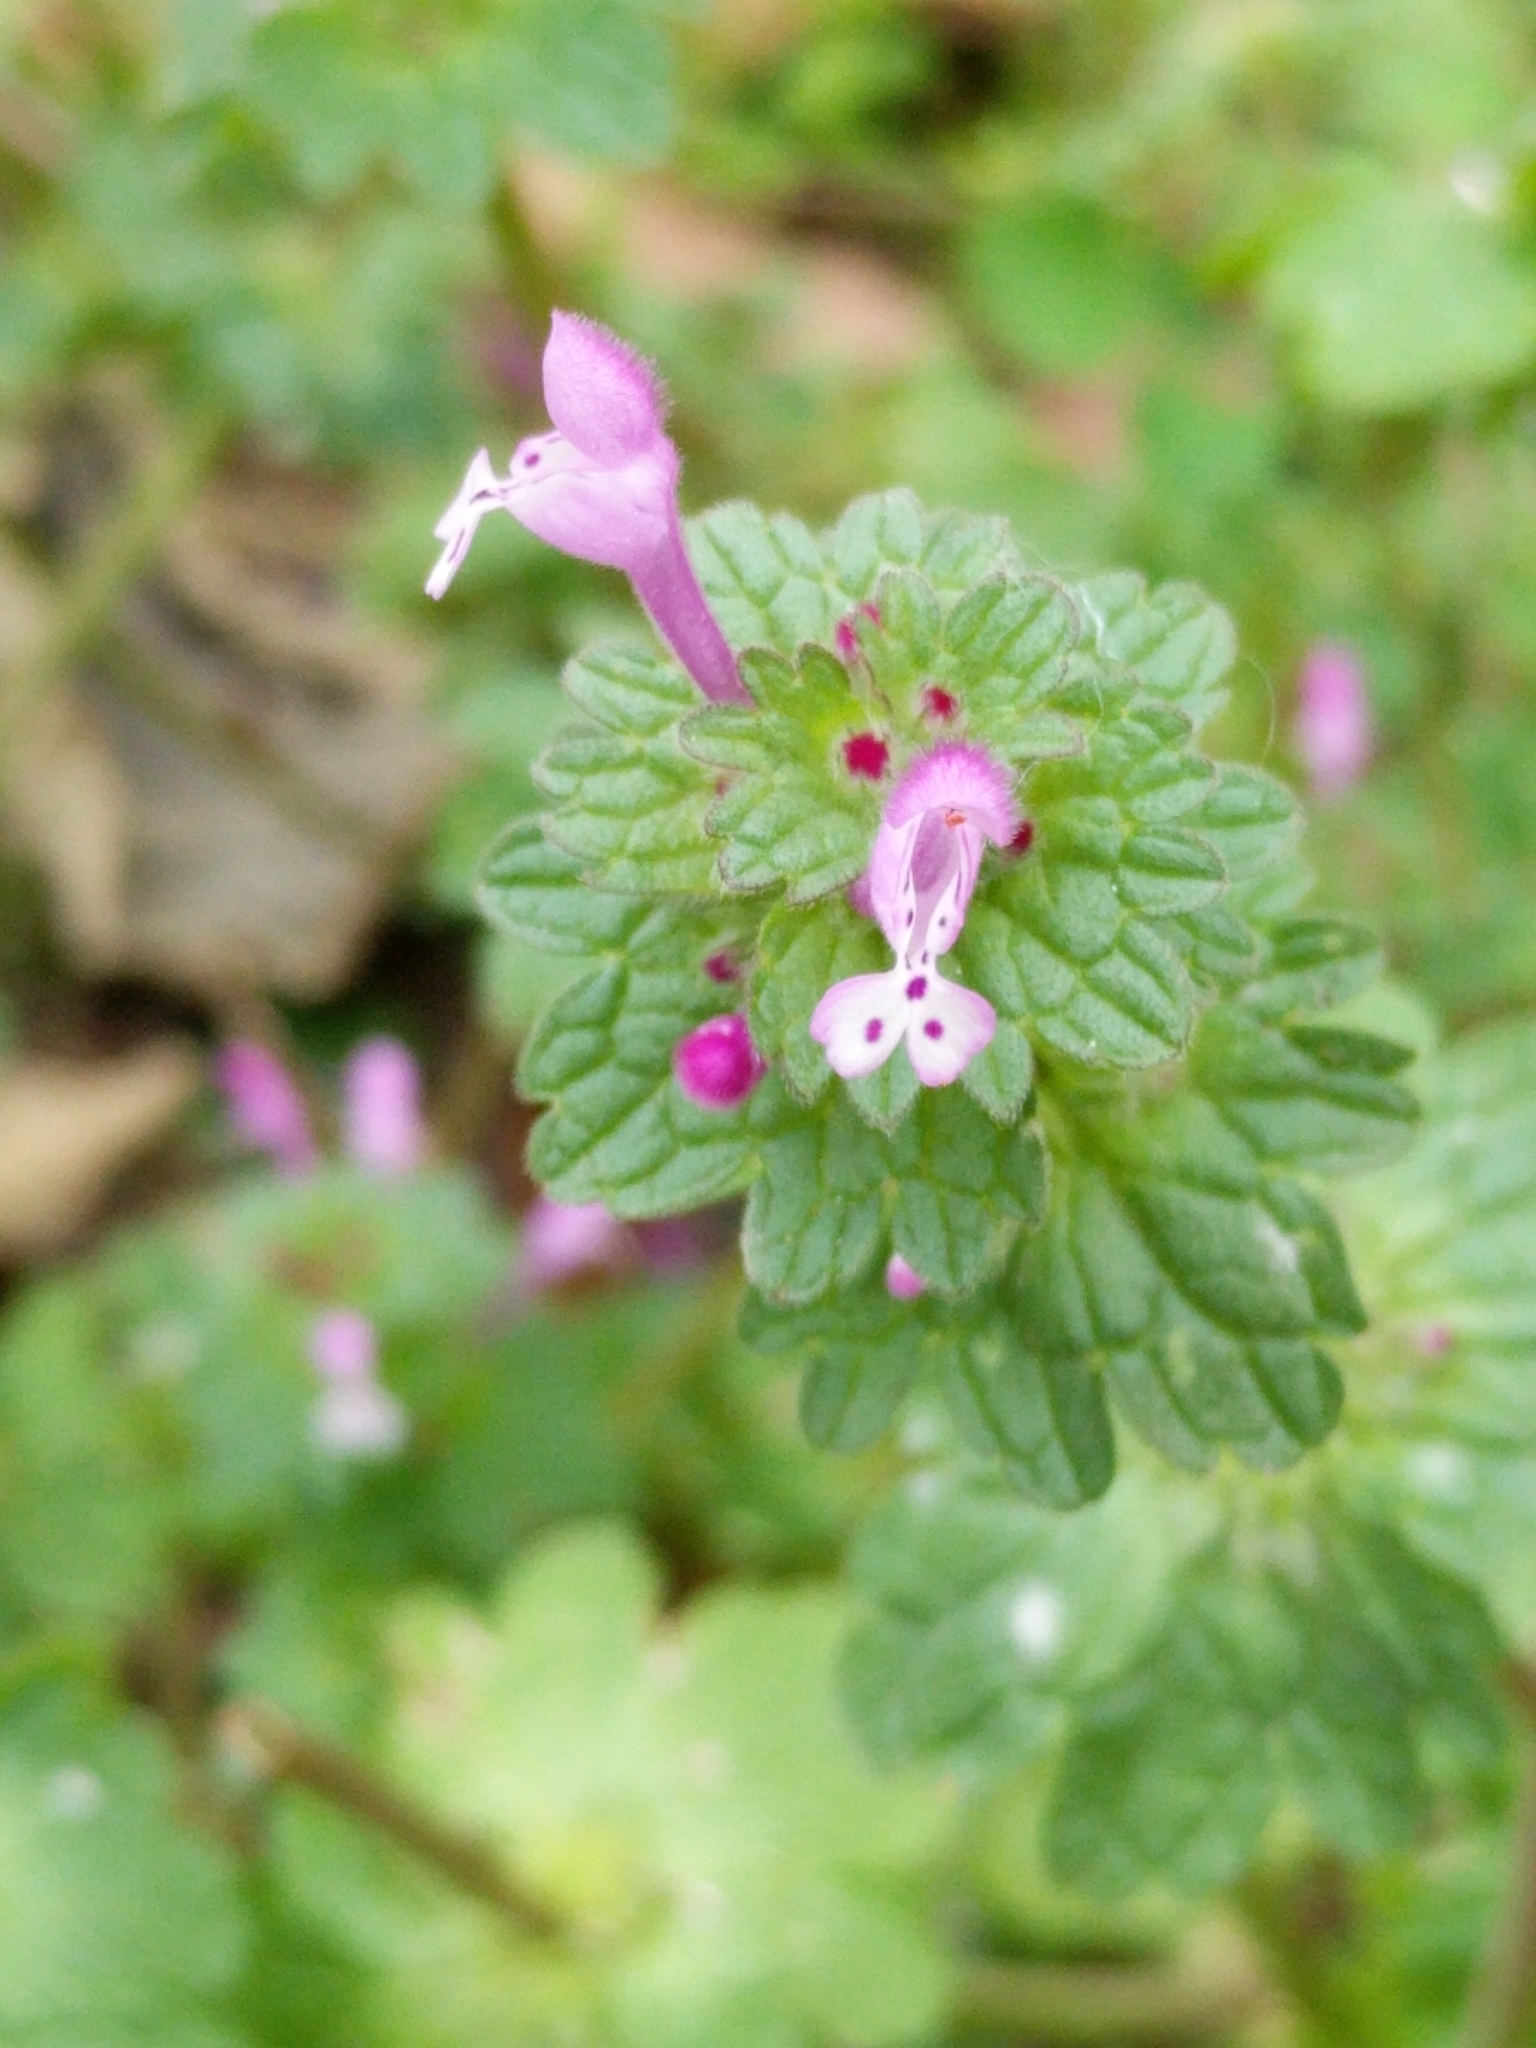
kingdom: Plantae
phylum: Tracheophyta
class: Magnoliopsida
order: Lamiales
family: Lamiaceae
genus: Lamium
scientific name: Lamium amplexicaule
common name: Henbit dead-nettle
